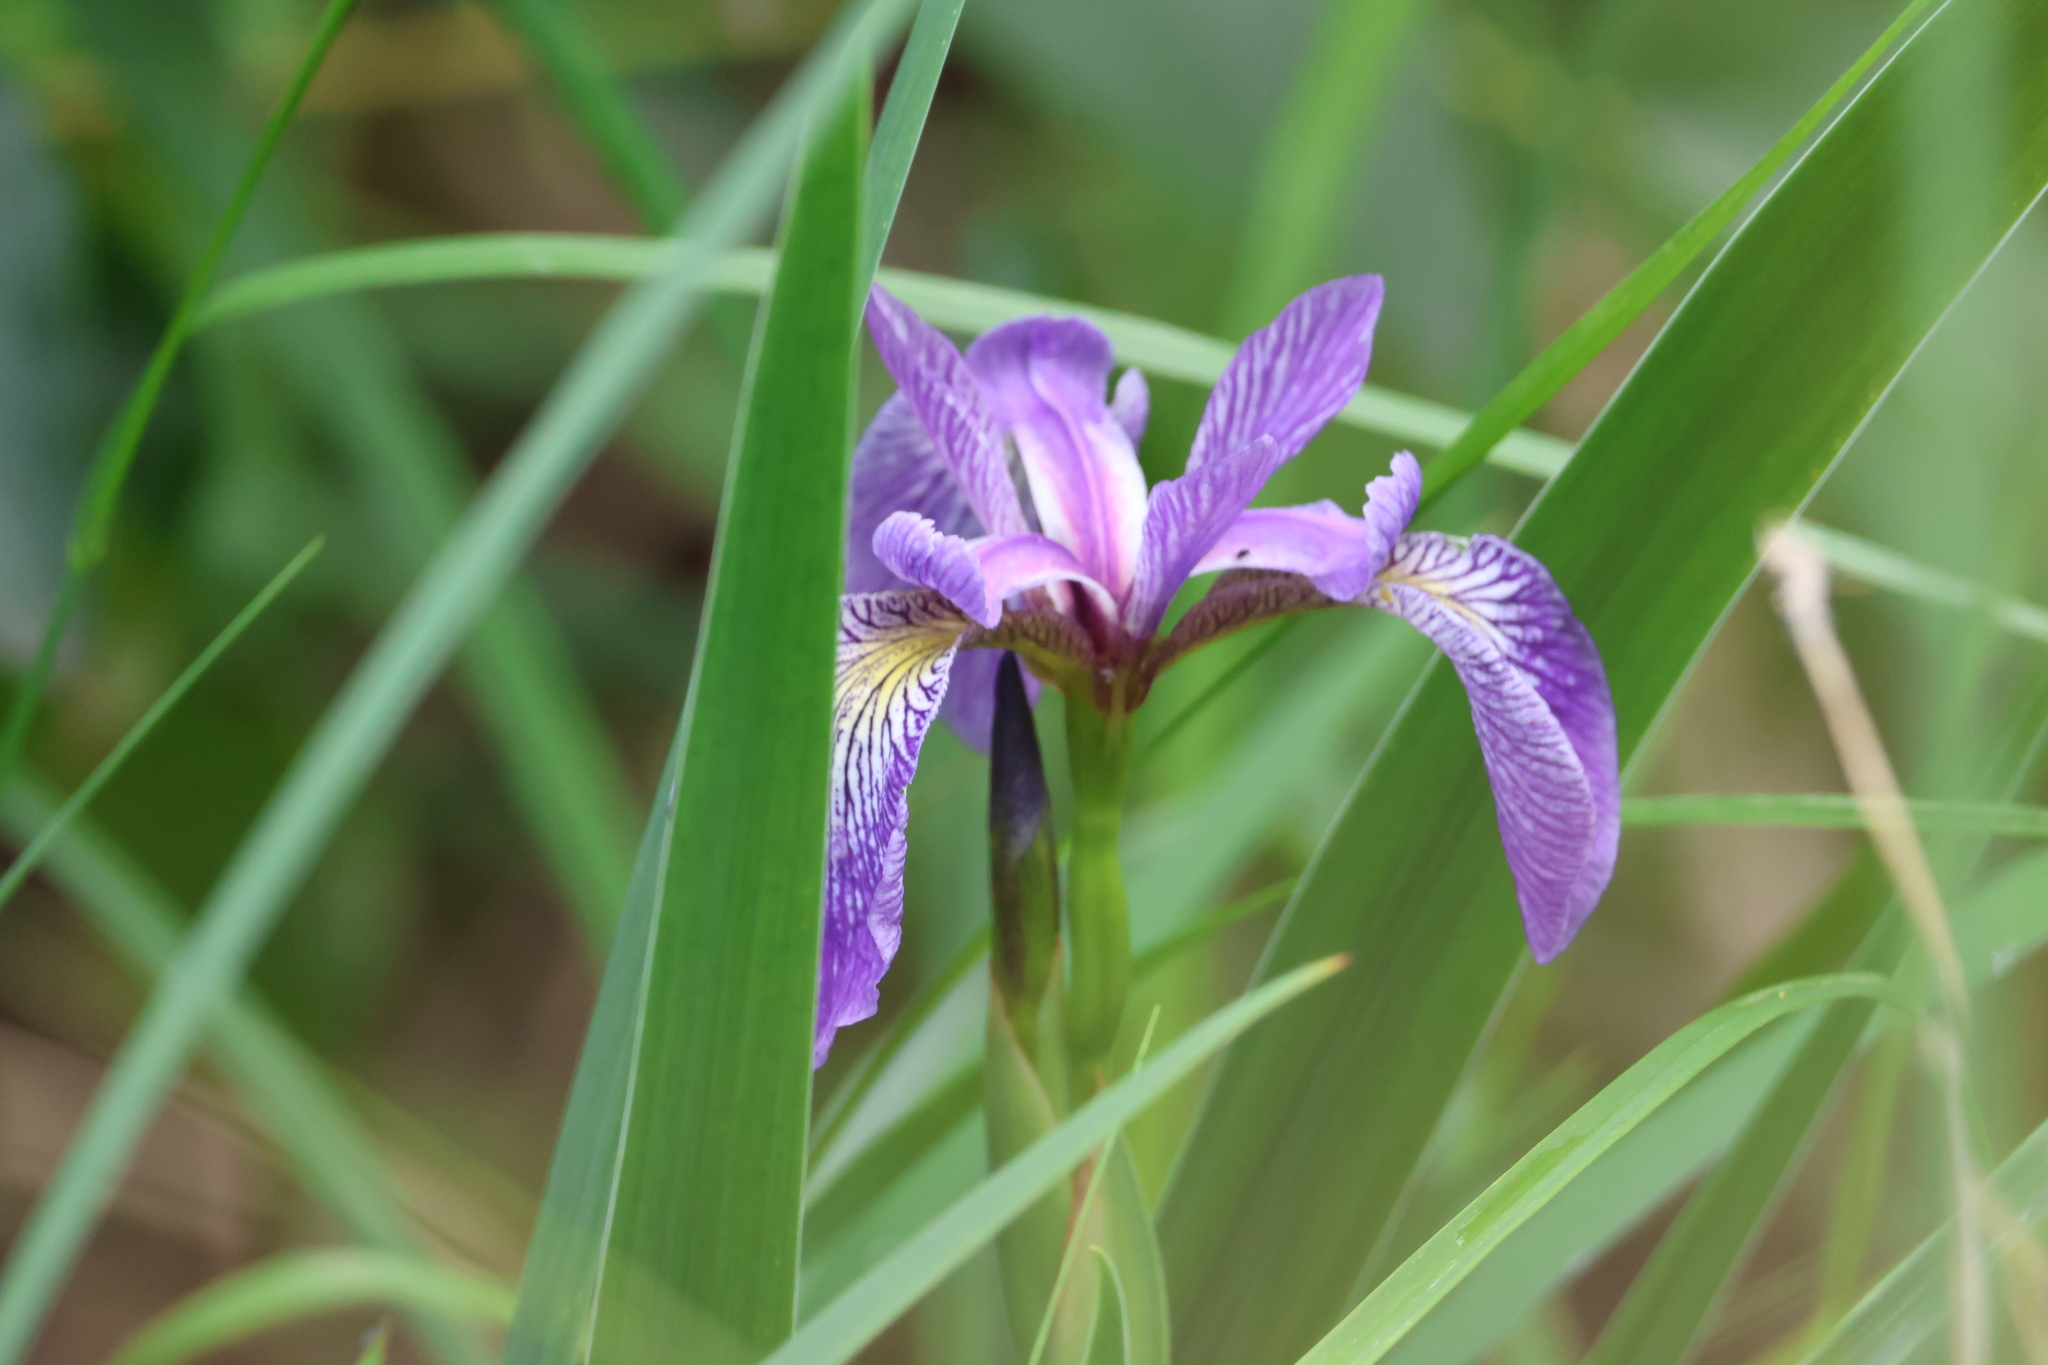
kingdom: Plantae
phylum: Tracheophyta
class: Liliopsida
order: Asparagales
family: Iridaceae
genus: Iris
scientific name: Iris versicolor
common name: Purple iris
